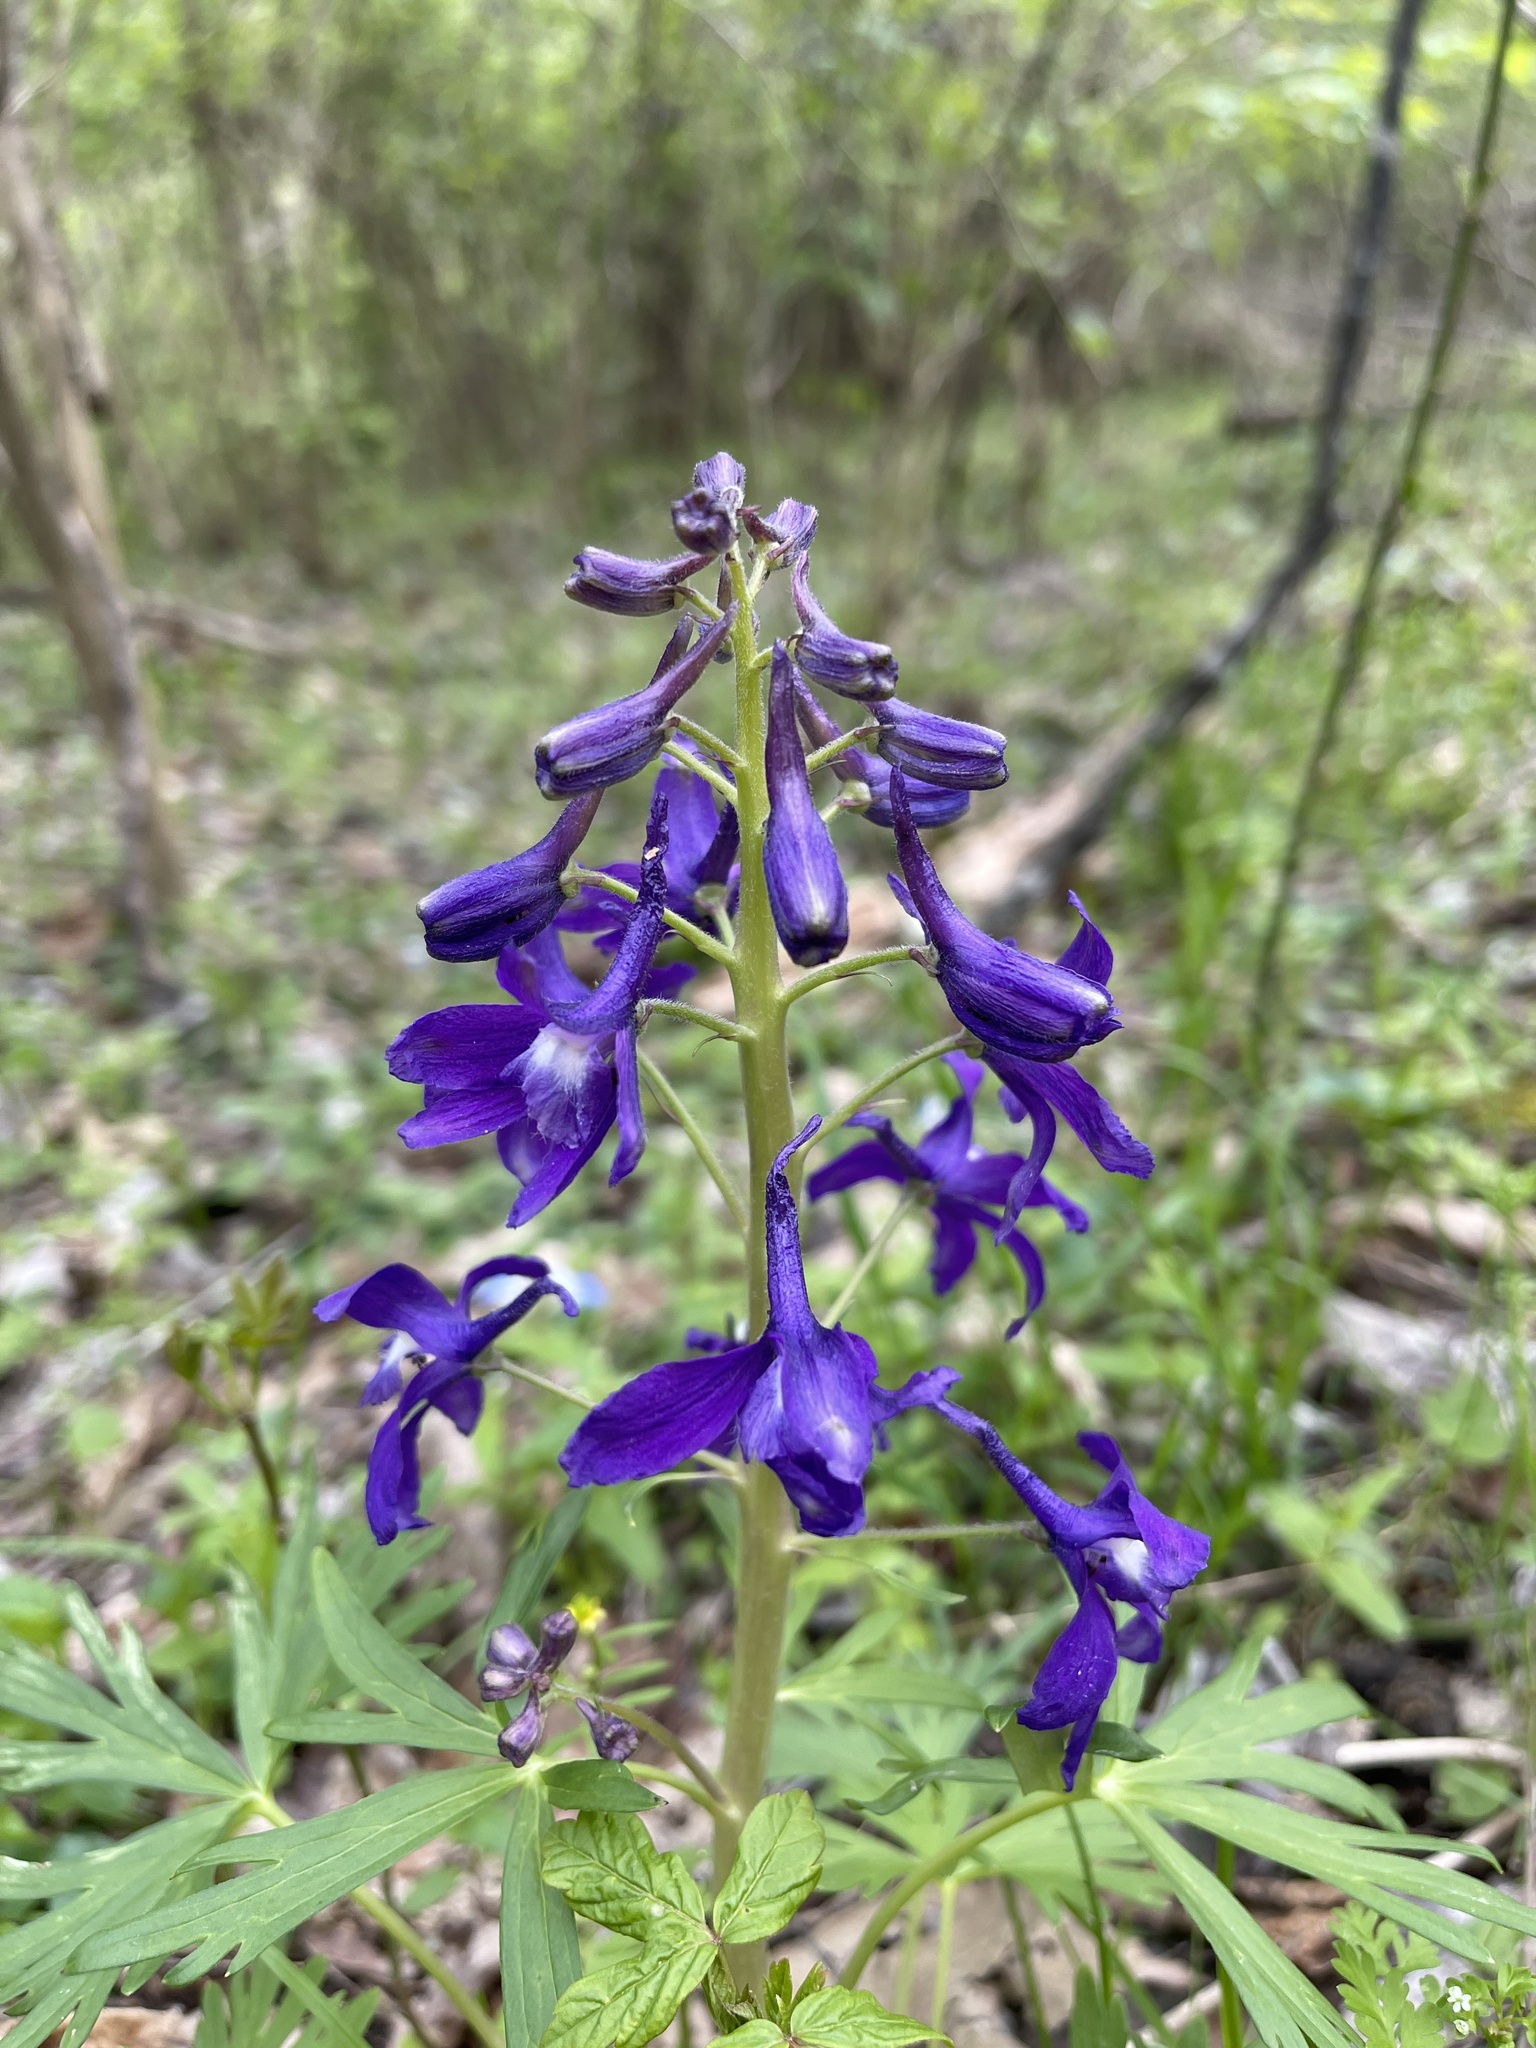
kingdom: Plantae
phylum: Tracheophyta
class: Magnoliopsida
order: Ranunculales
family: Ranunculaceae
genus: Delphinium
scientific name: Delphinium tricorne
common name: Dwarf larkspur
